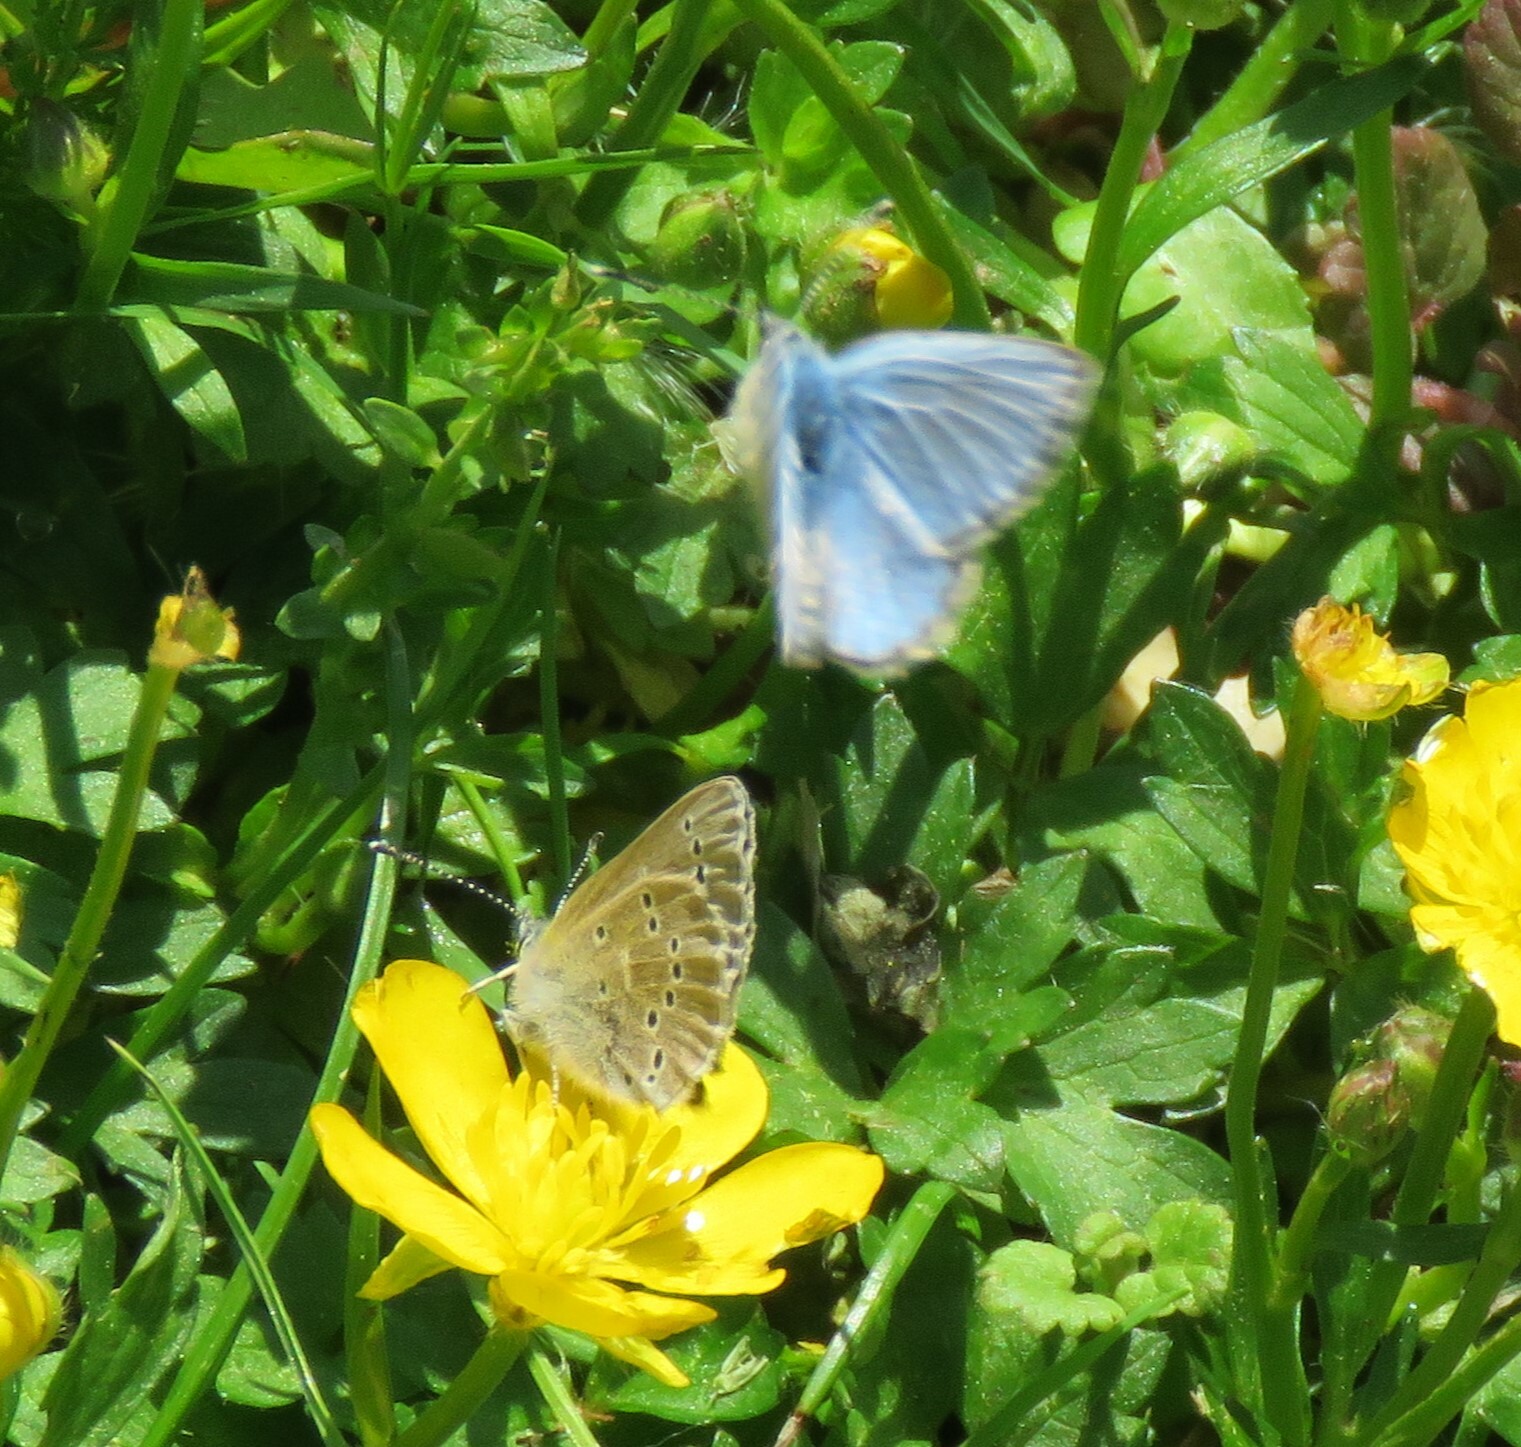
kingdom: Animalia
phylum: Arthropoda
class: Insecta
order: Lepidoptera
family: Lycaenidae
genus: Glaucopsyche
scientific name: Glaucopsyche lygdamus
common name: Silvery blue
